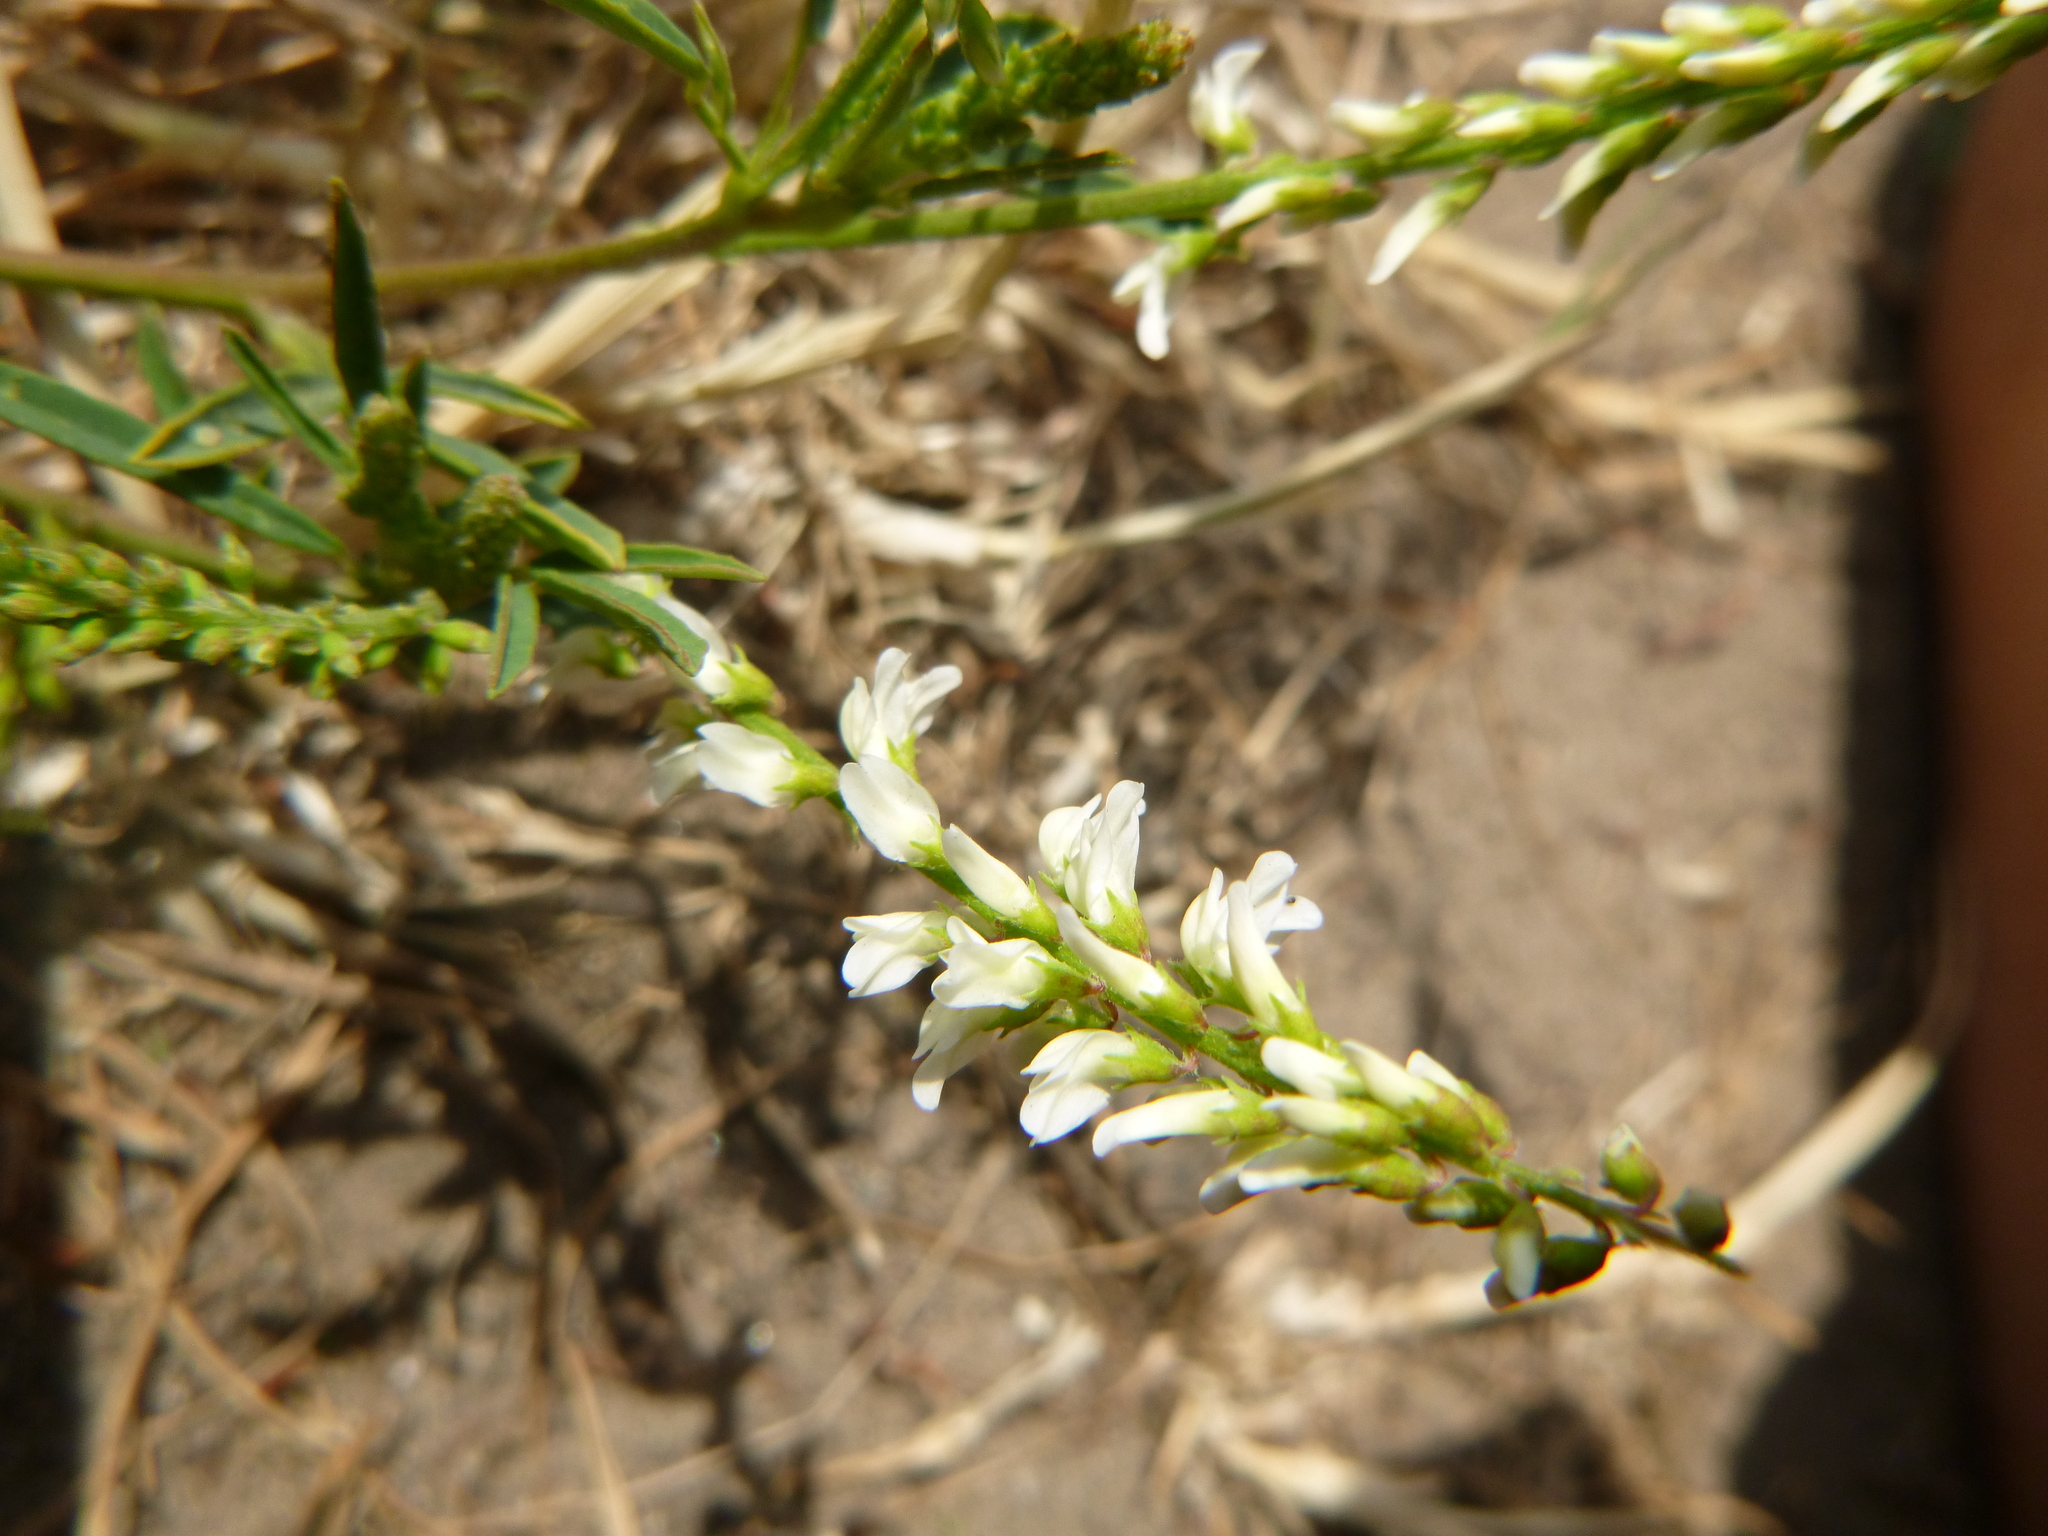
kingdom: Plantae
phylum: Tracheophyta
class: Magnoliopsida
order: Fabales
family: Fabaceae
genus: Melilotus
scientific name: Melilotus albus
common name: White melilot
